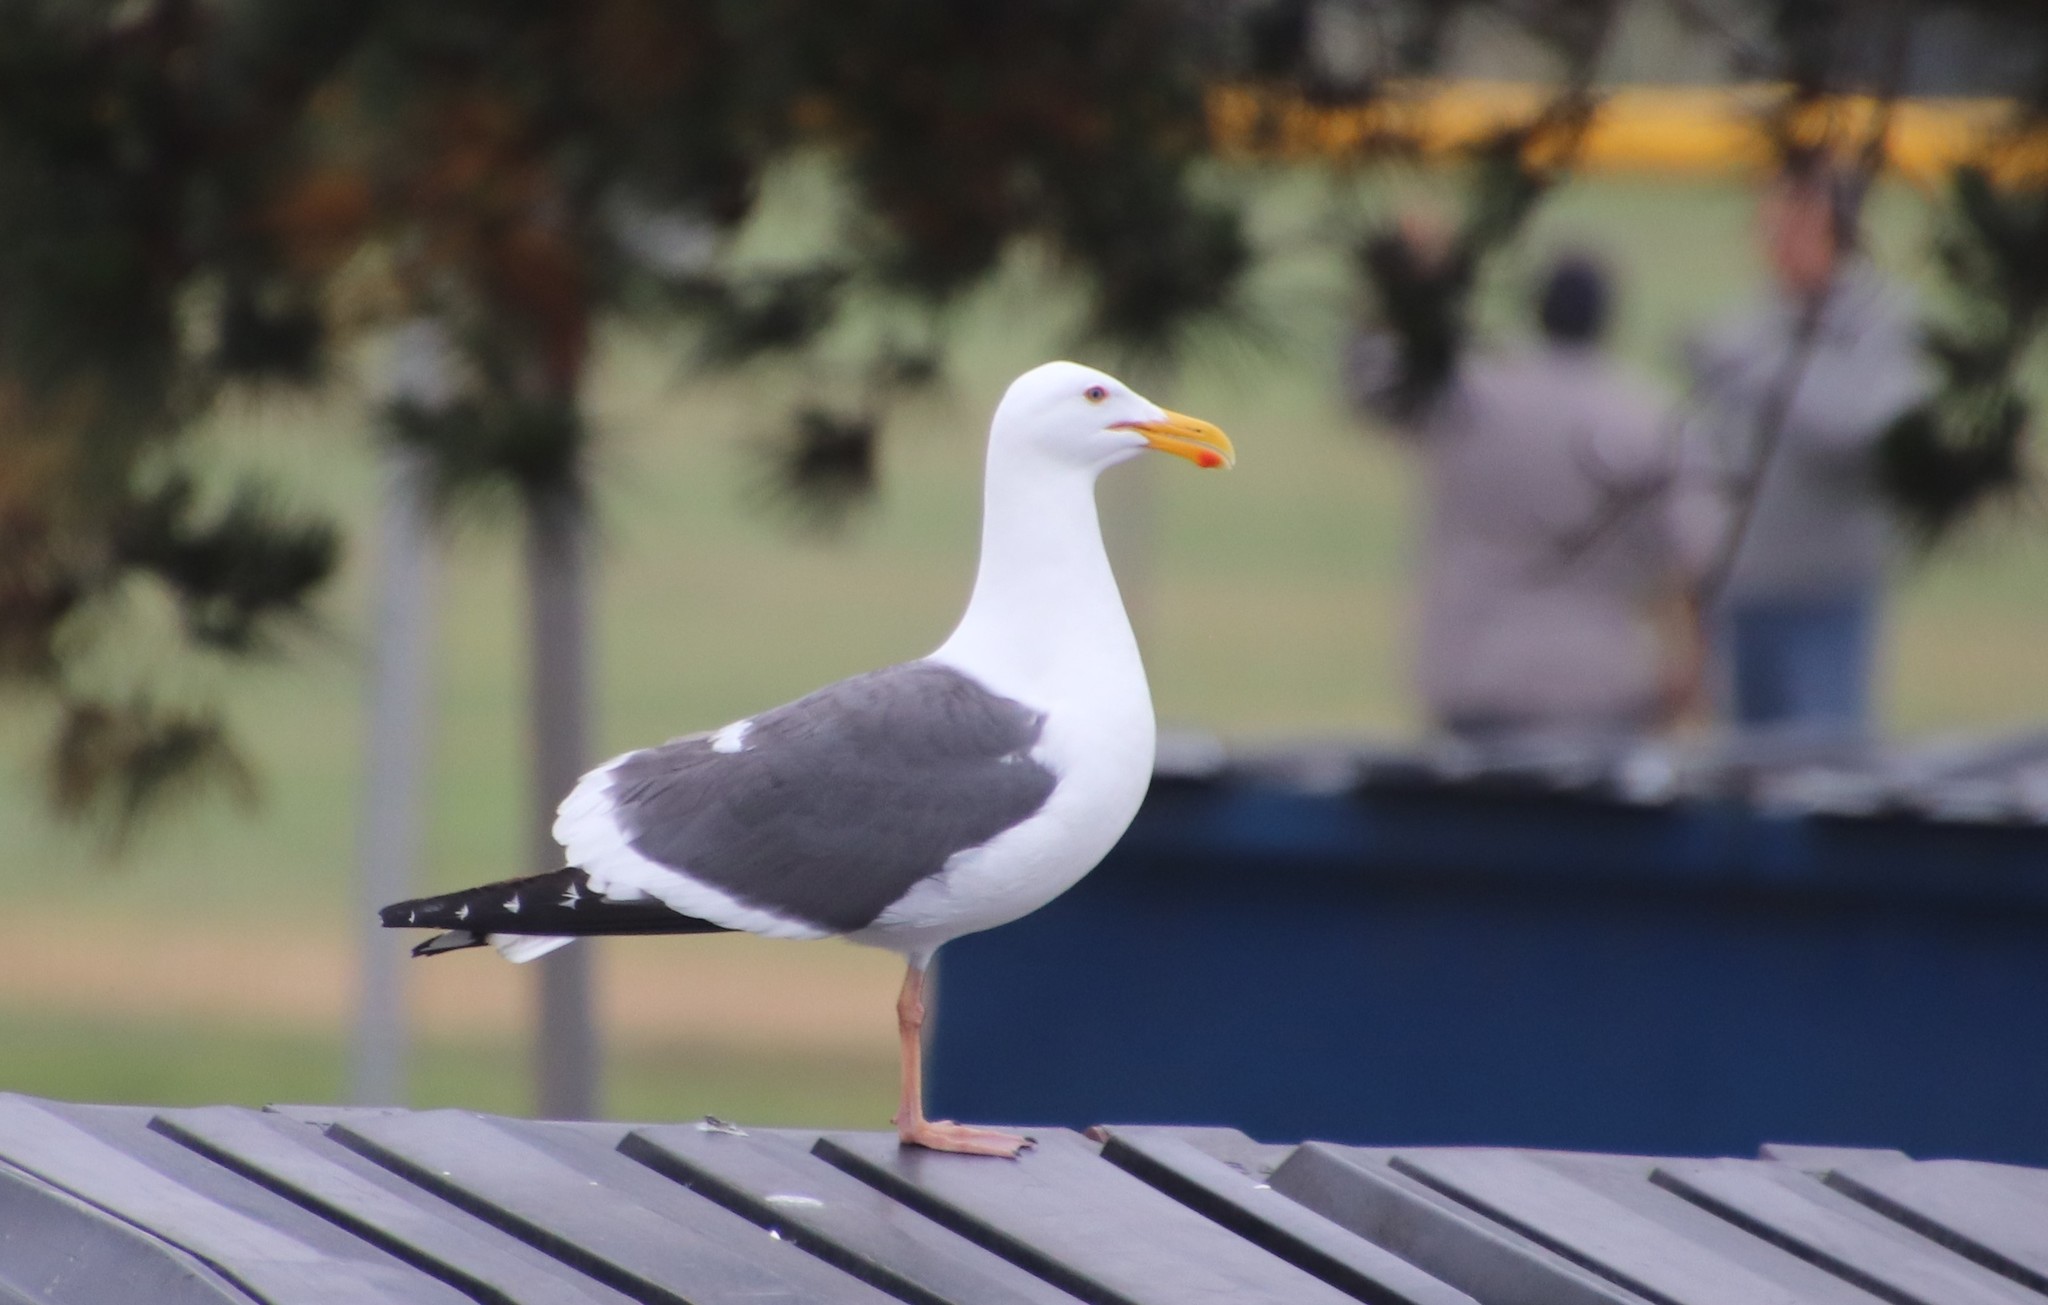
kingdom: Animalia
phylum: Chordata
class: Aves
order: Charadriiformes
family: Laridae
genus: Larus
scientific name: Larus occidentalis
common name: Western gull
